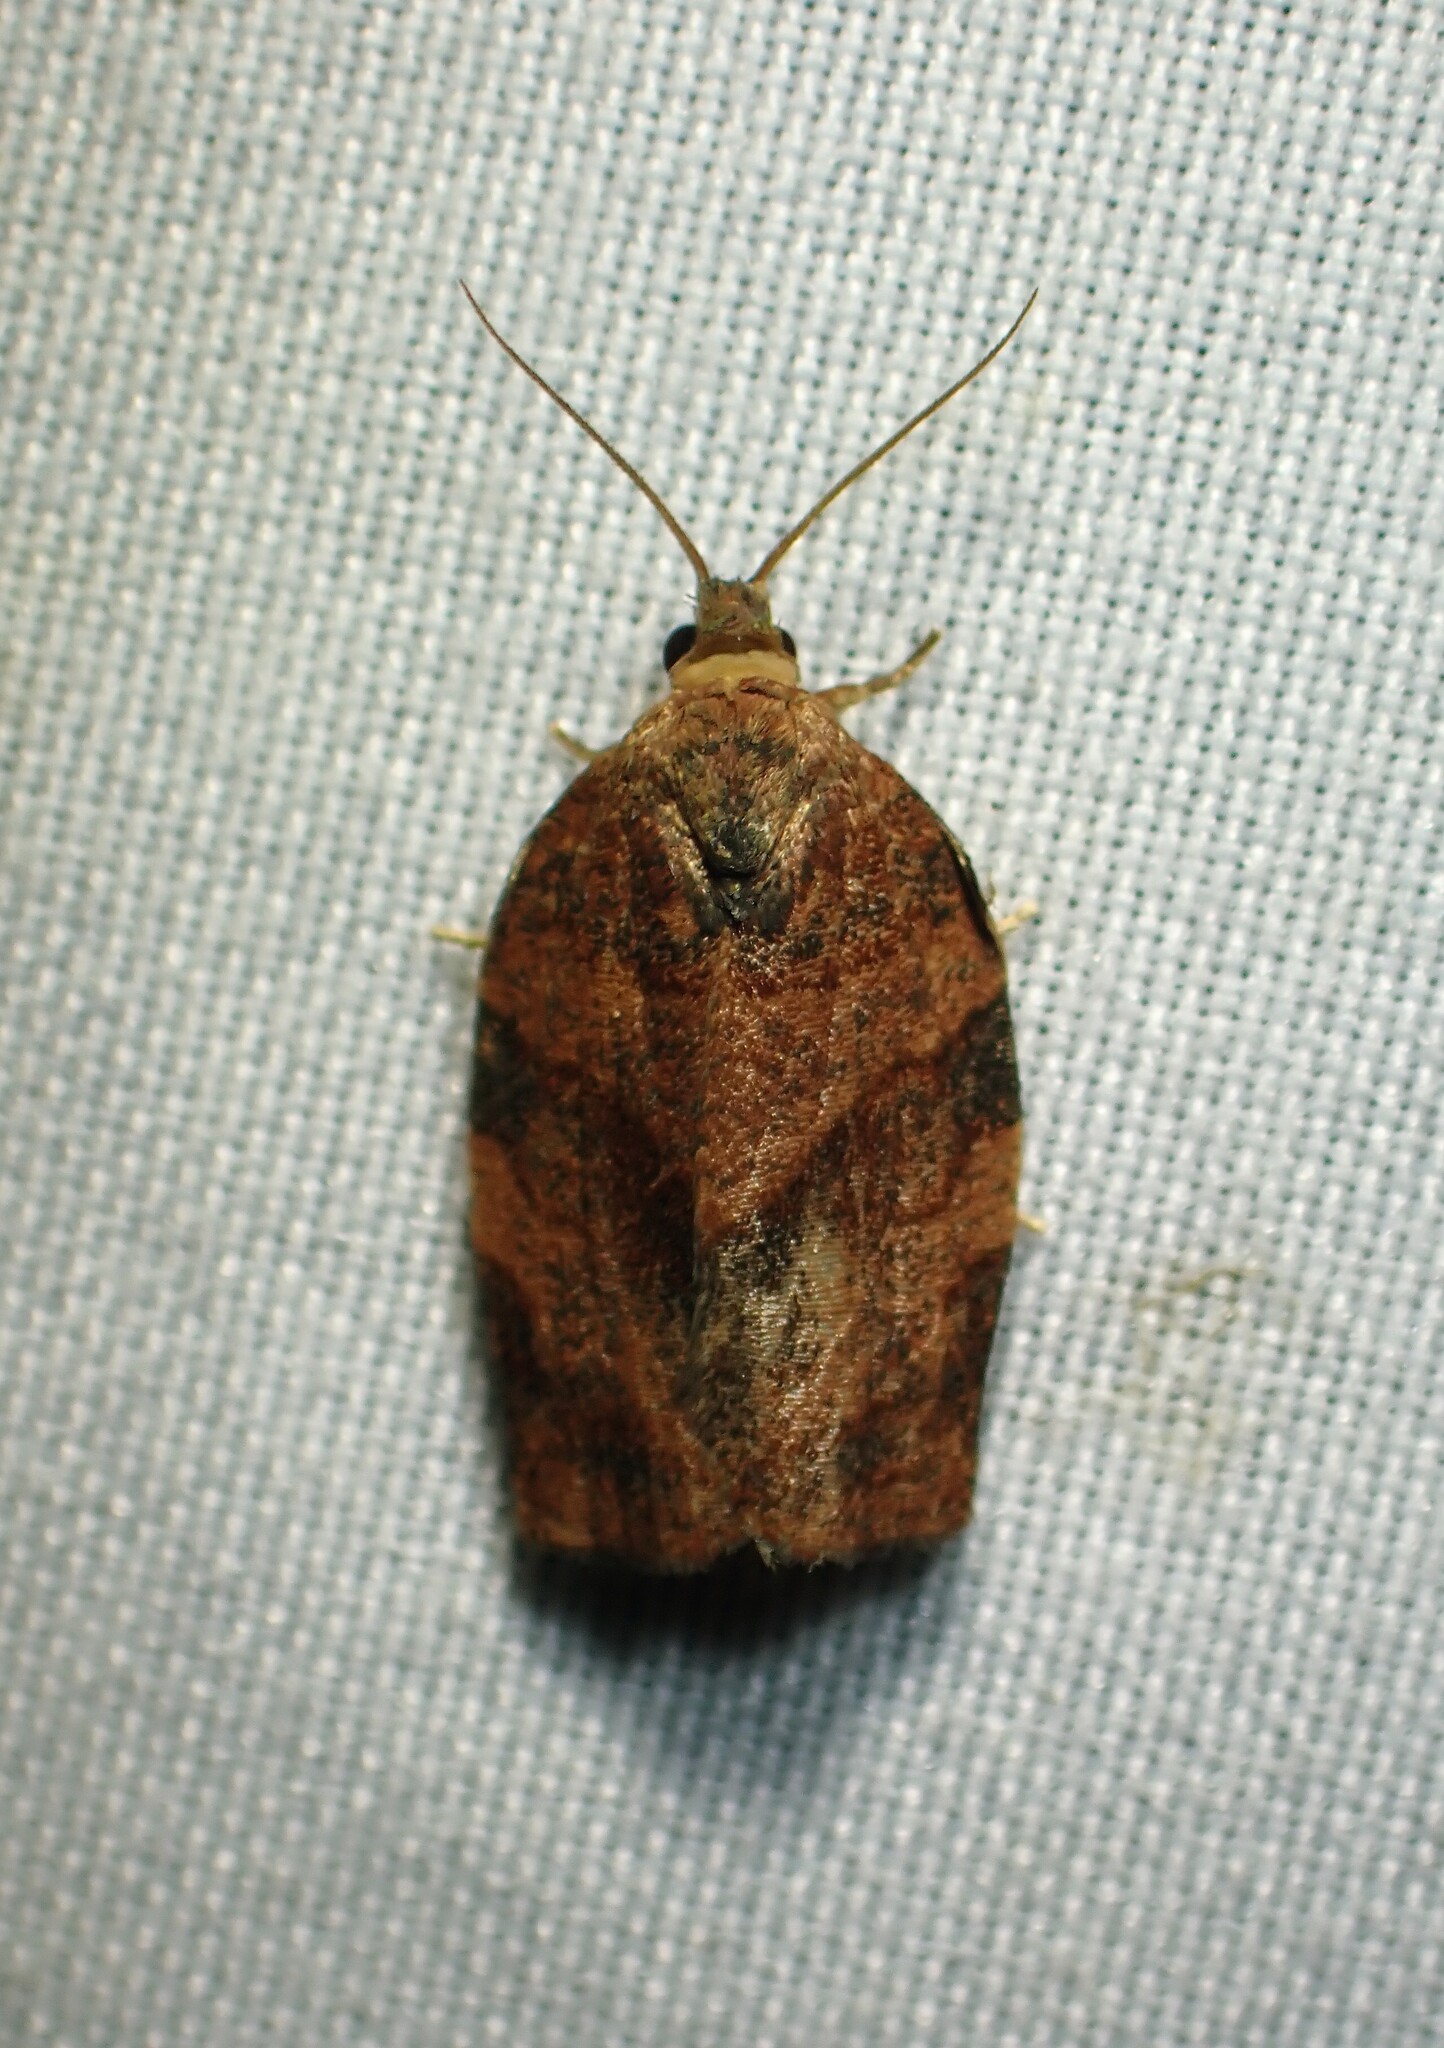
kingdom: Animalia
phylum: Arthropoda
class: Insecta
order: Lepidoptera
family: Tortricidae
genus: Choristoneura
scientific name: Choristoneura rosaceana
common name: Oblique-banded leafroller moth
